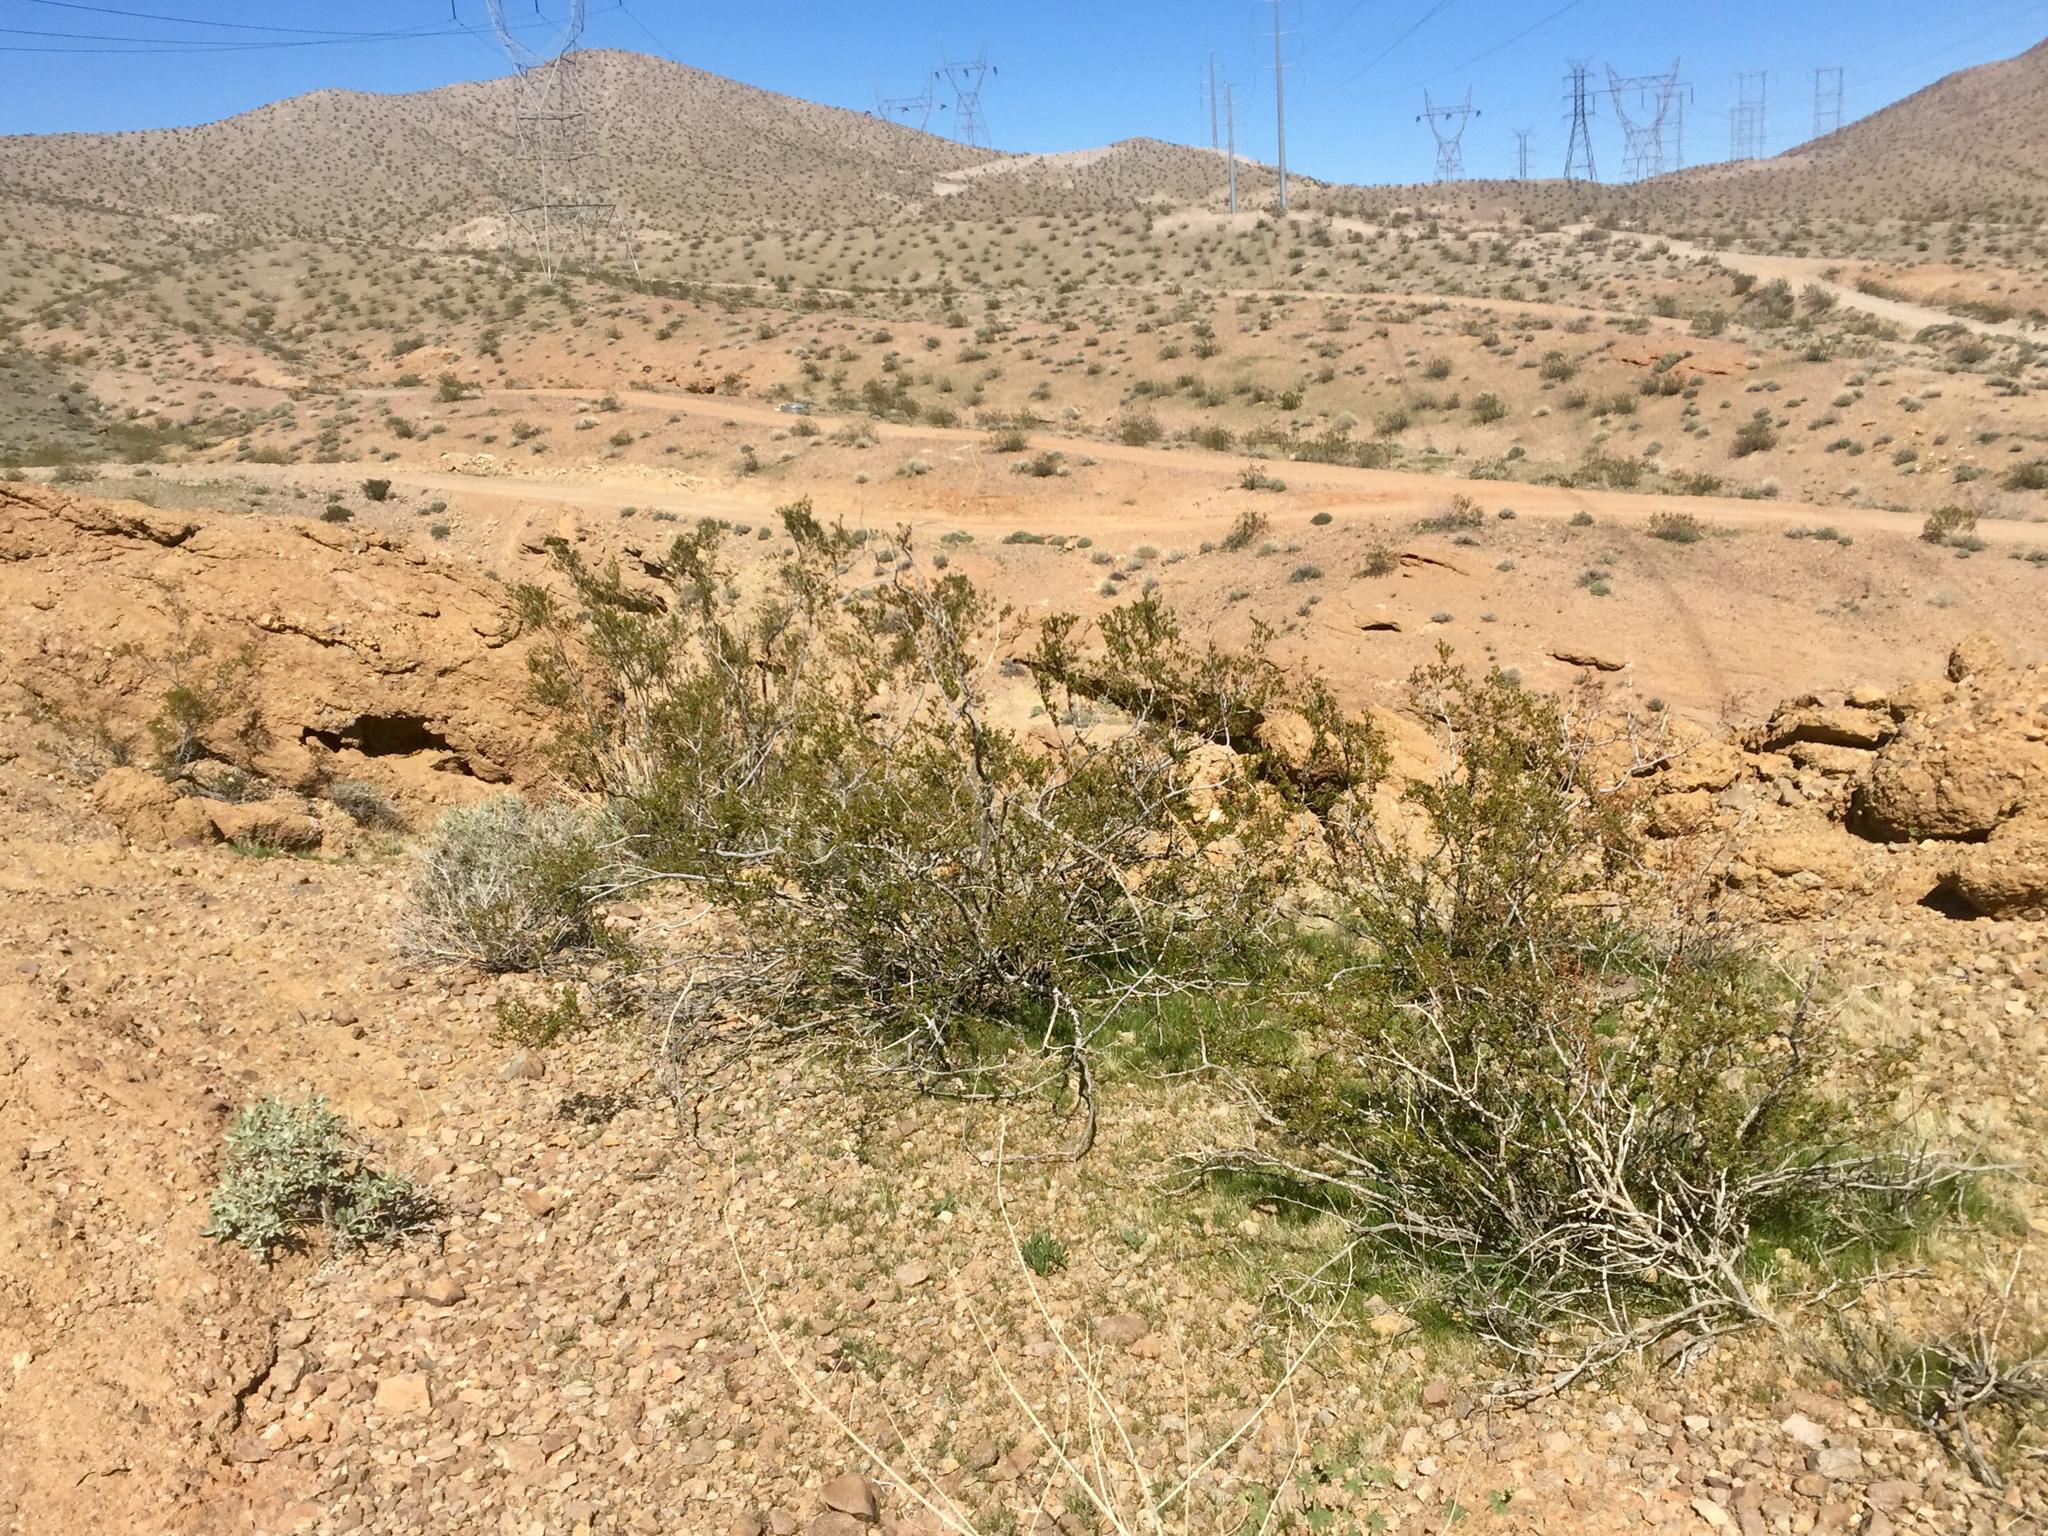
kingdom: Plantae
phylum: Tracheophyta
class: Magnoliopsida
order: Zygophyllales
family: Zygophyllaceae
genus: Larrea
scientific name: Larrea tridentata
